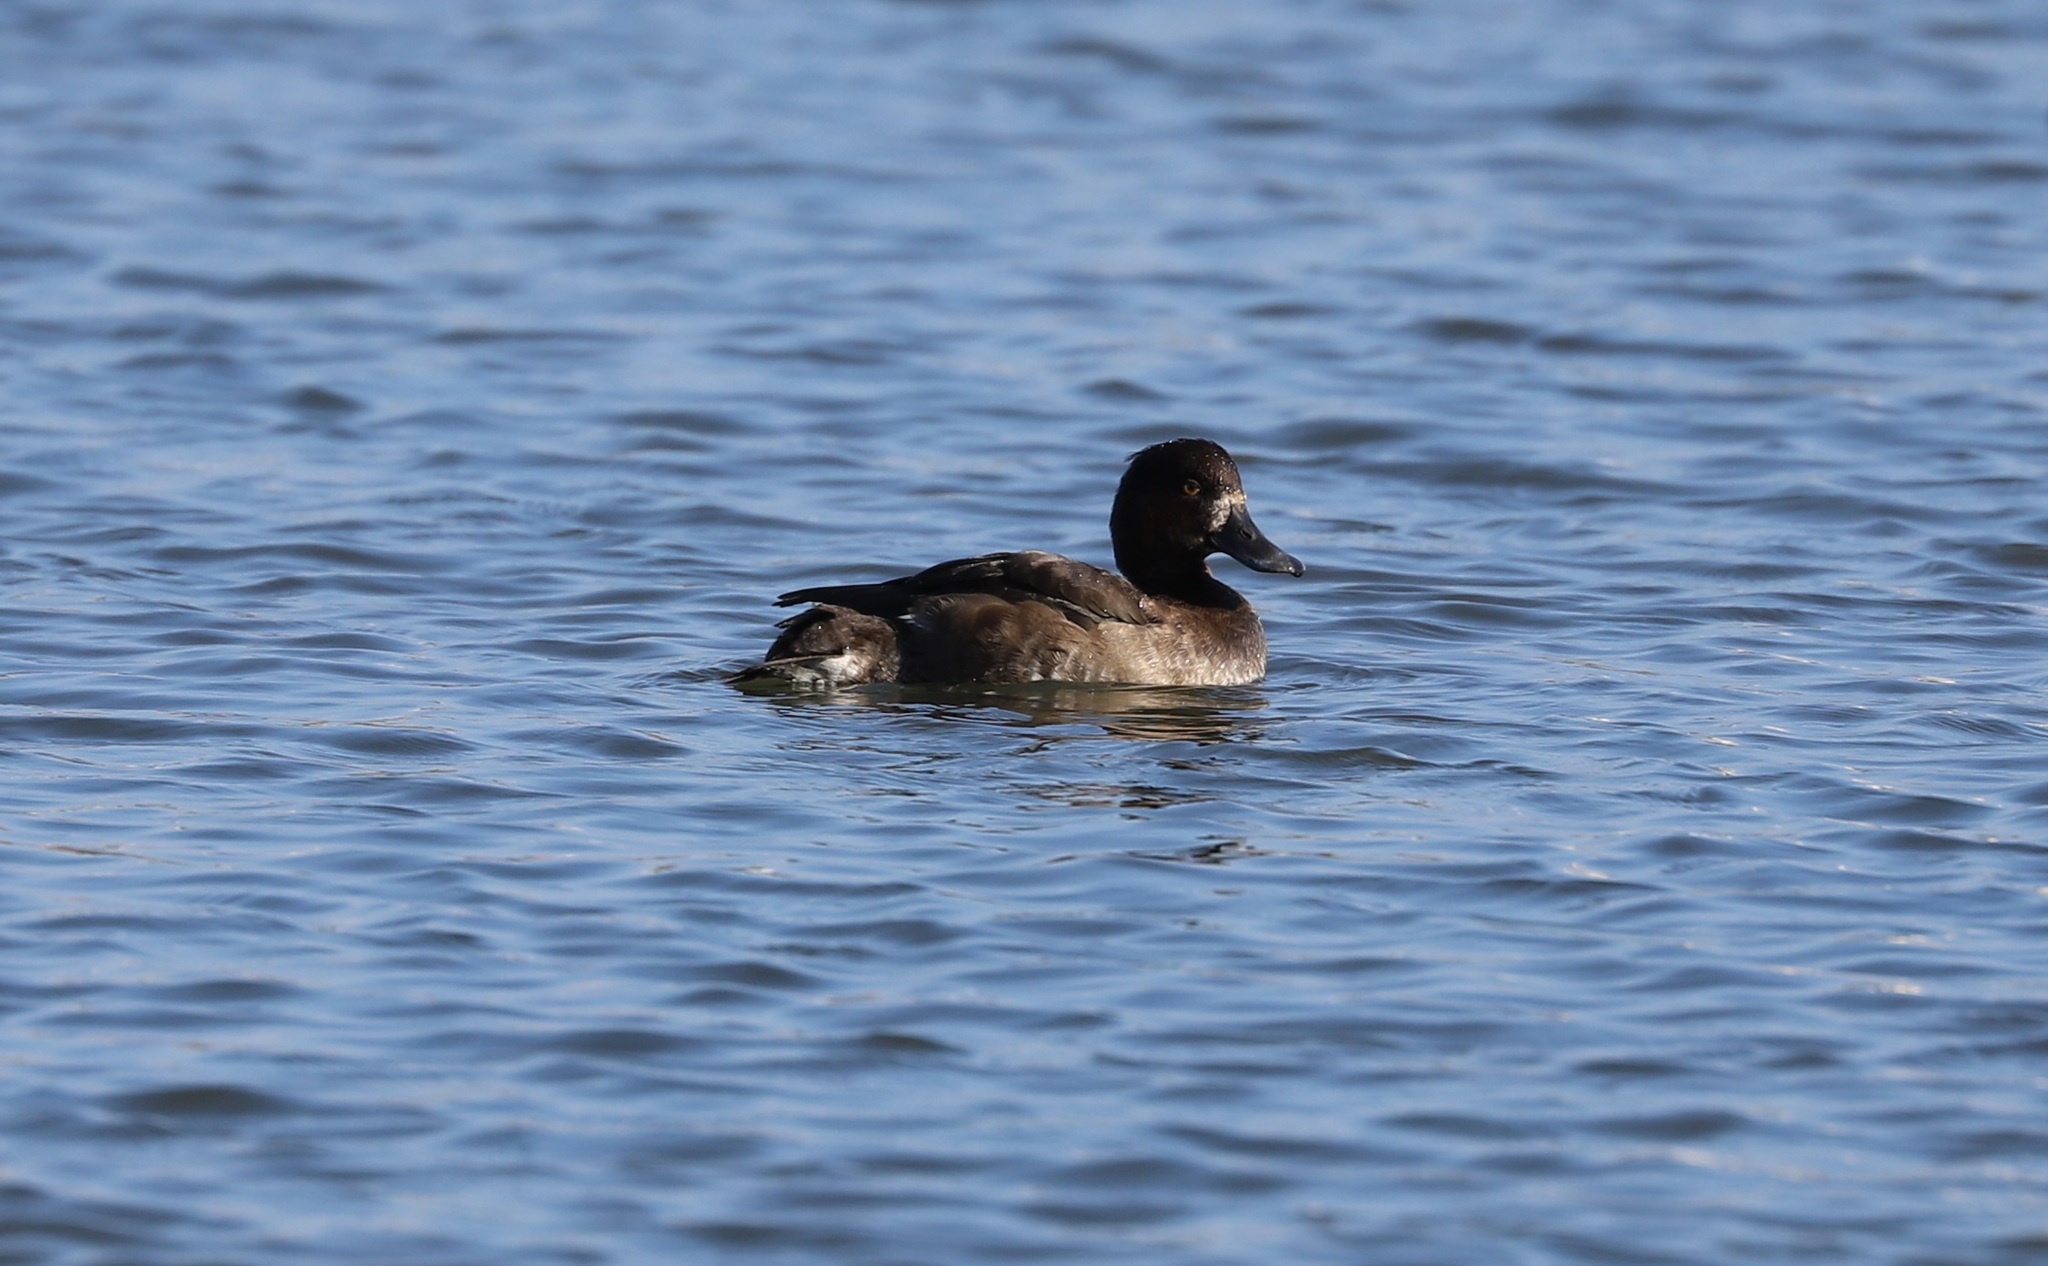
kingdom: Animalia
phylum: Chordata
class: Aves
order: Anseriformes
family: Anatidae
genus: Aythya
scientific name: Aythya fuligula
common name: Tufted duck
